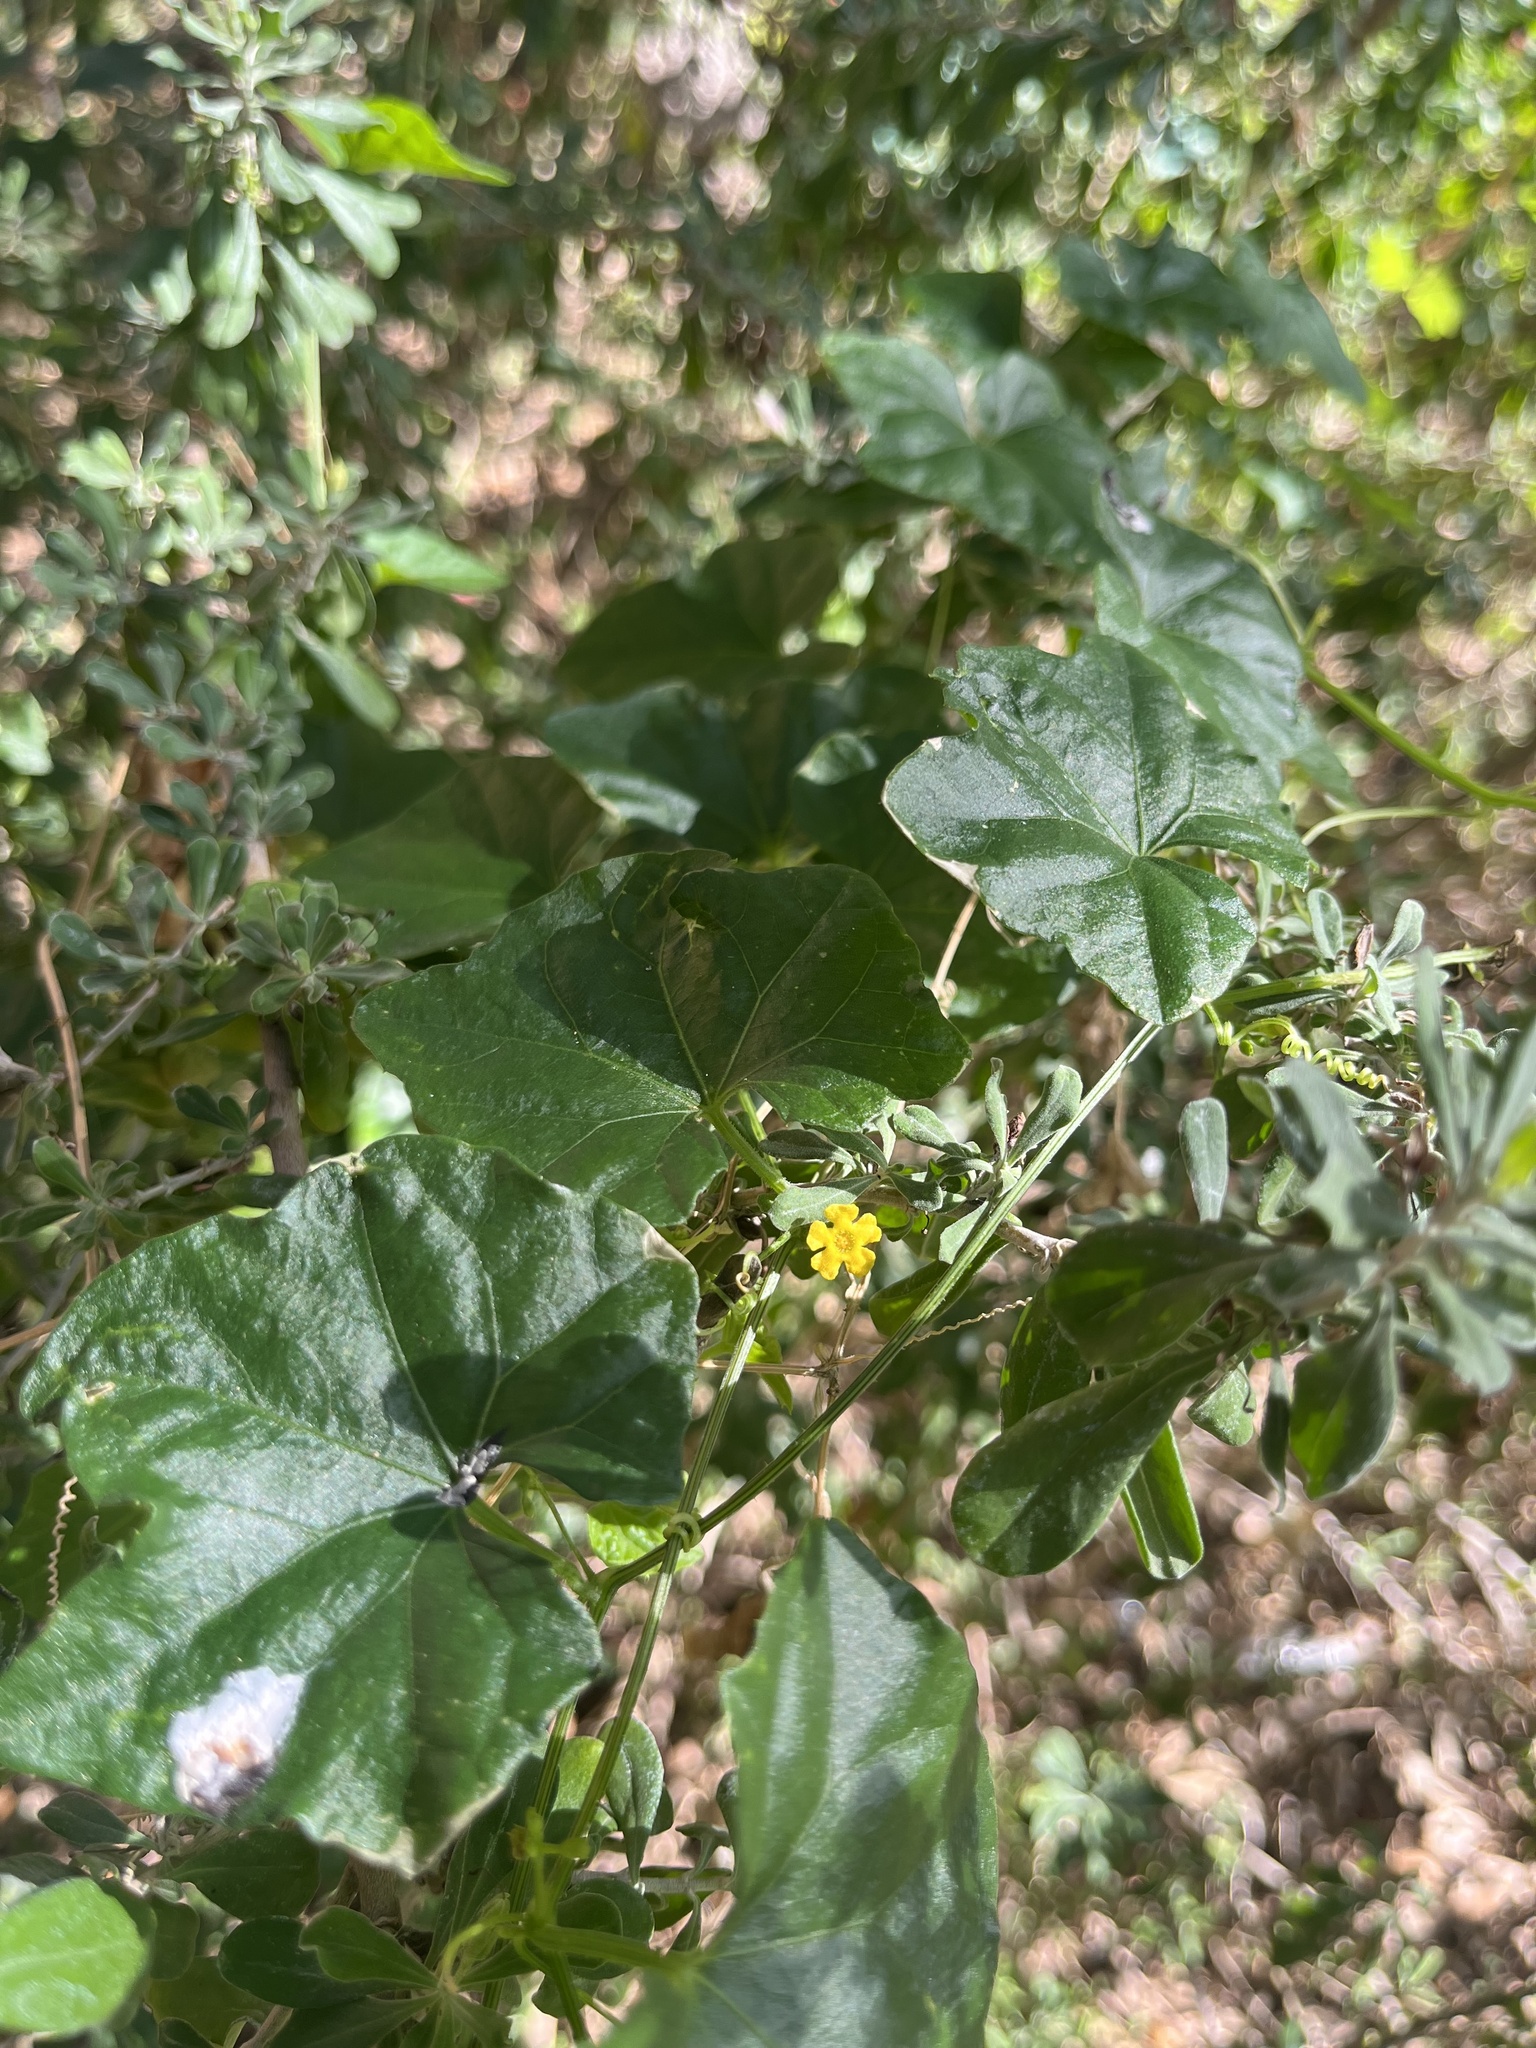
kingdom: Plantae
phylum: Tracheophyta
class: Magnoliopsida
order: Cucurbitales
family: Cucurbitaceae
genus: Melothria
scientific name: Melothria pendula
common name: Creeping-cucumber
